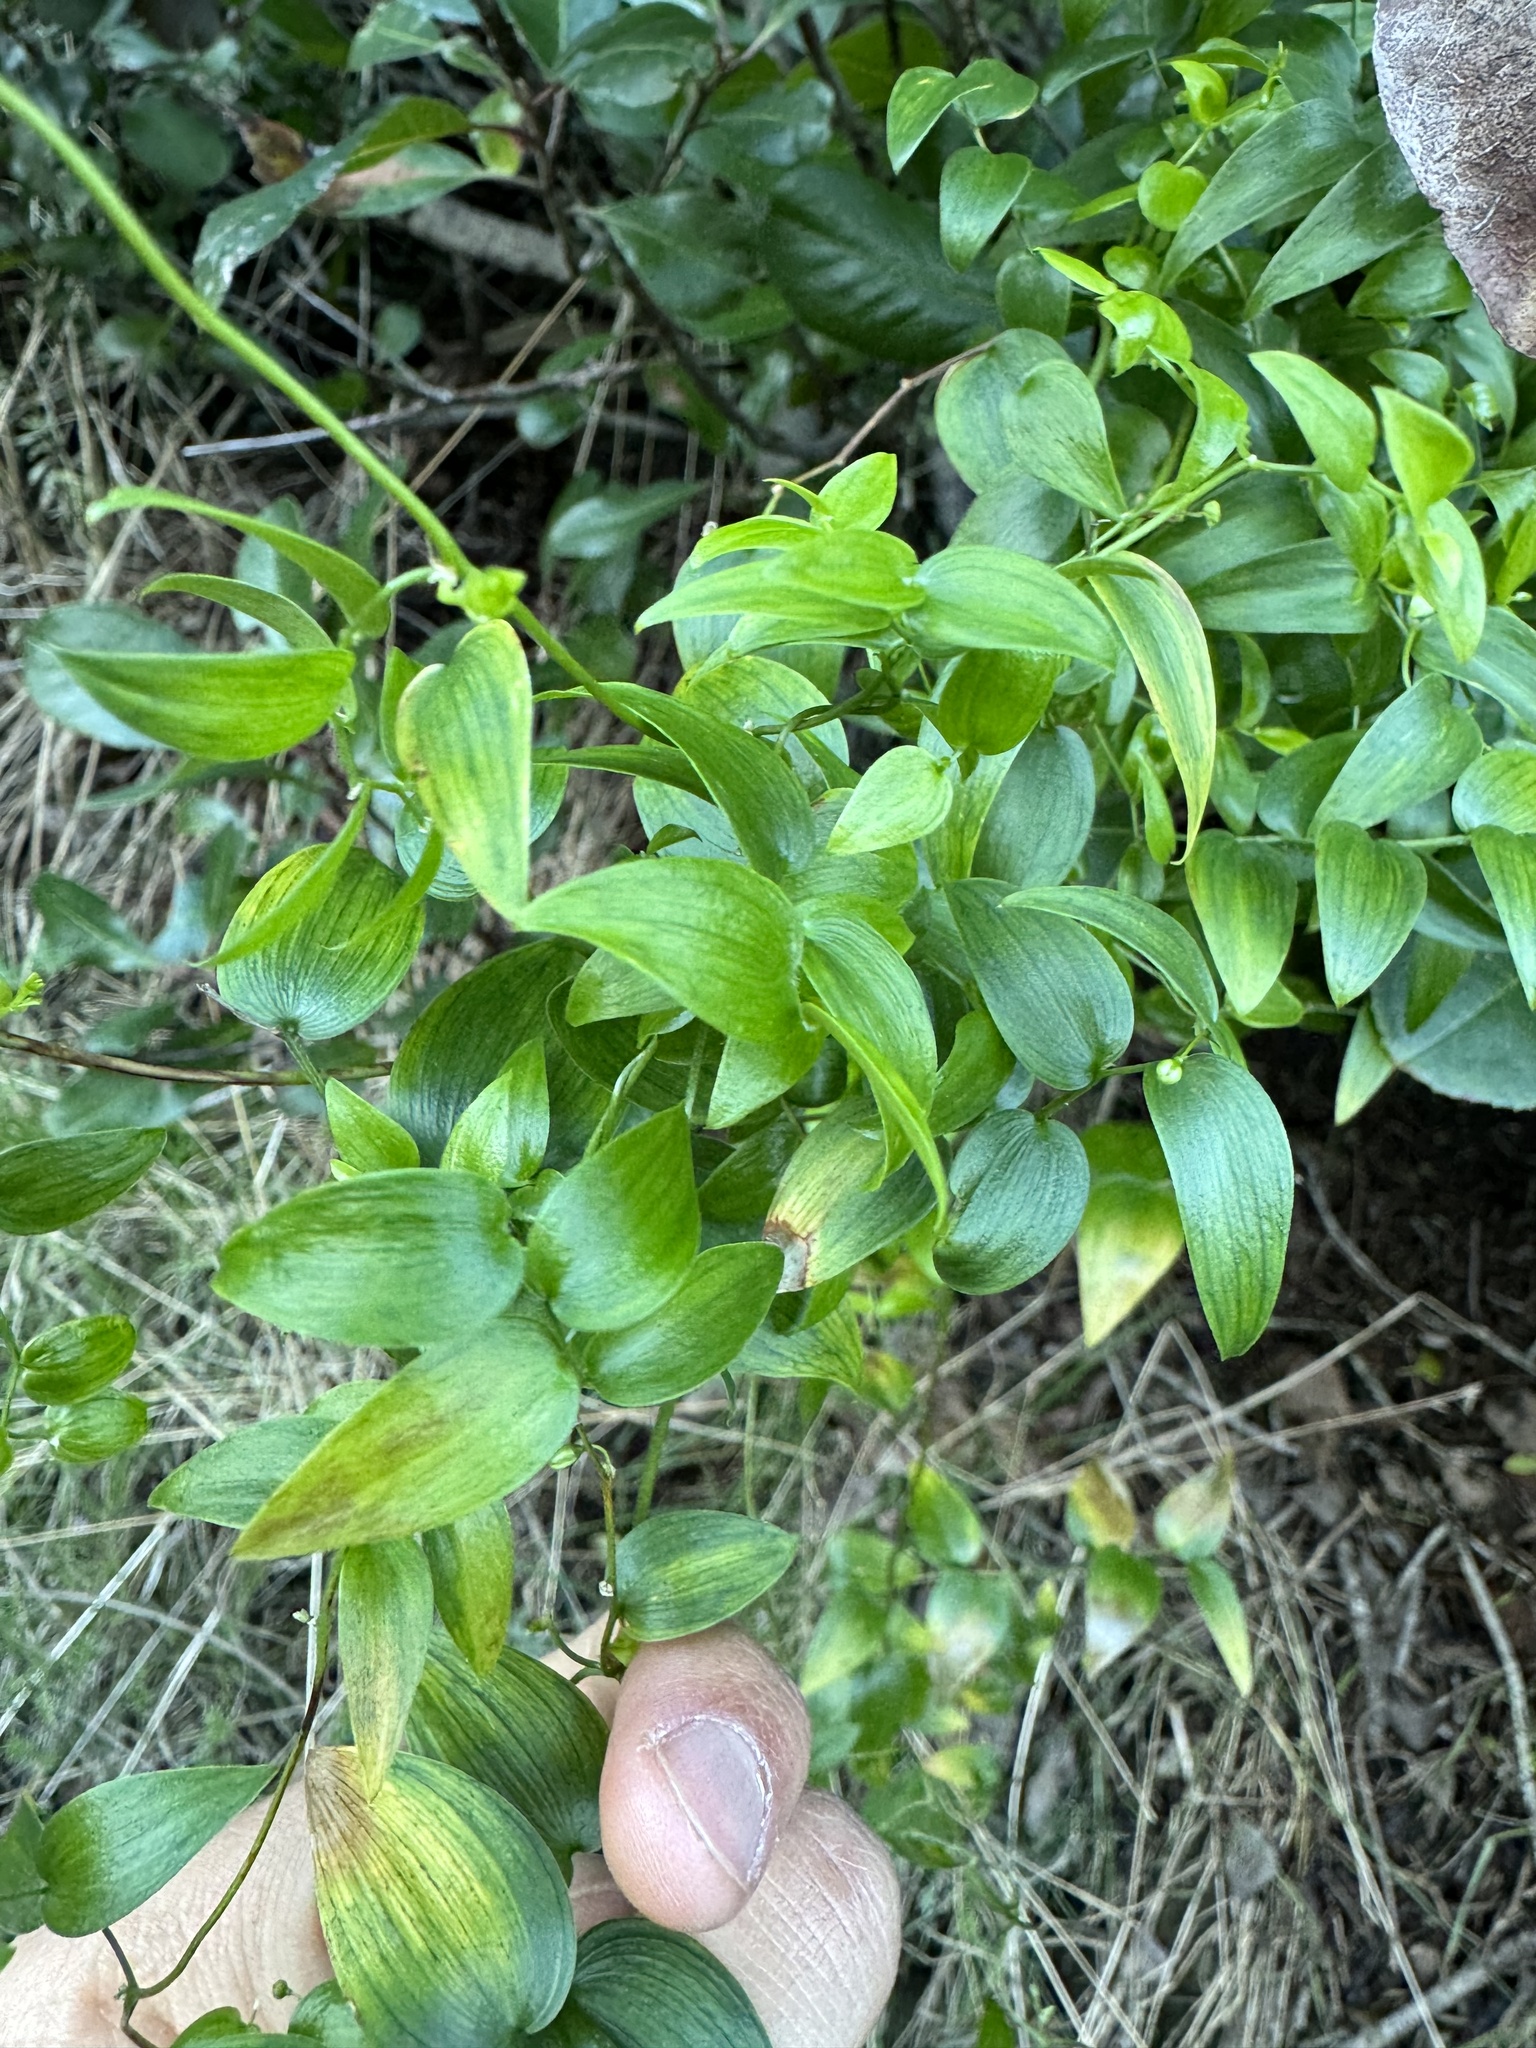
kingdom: Plantae
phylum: Tracheophyta
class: Liliopsida
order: Asparagales
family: Asparagaceae
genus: Asparagus
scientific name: Asparagus asparagoides
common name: African asparagus fern
